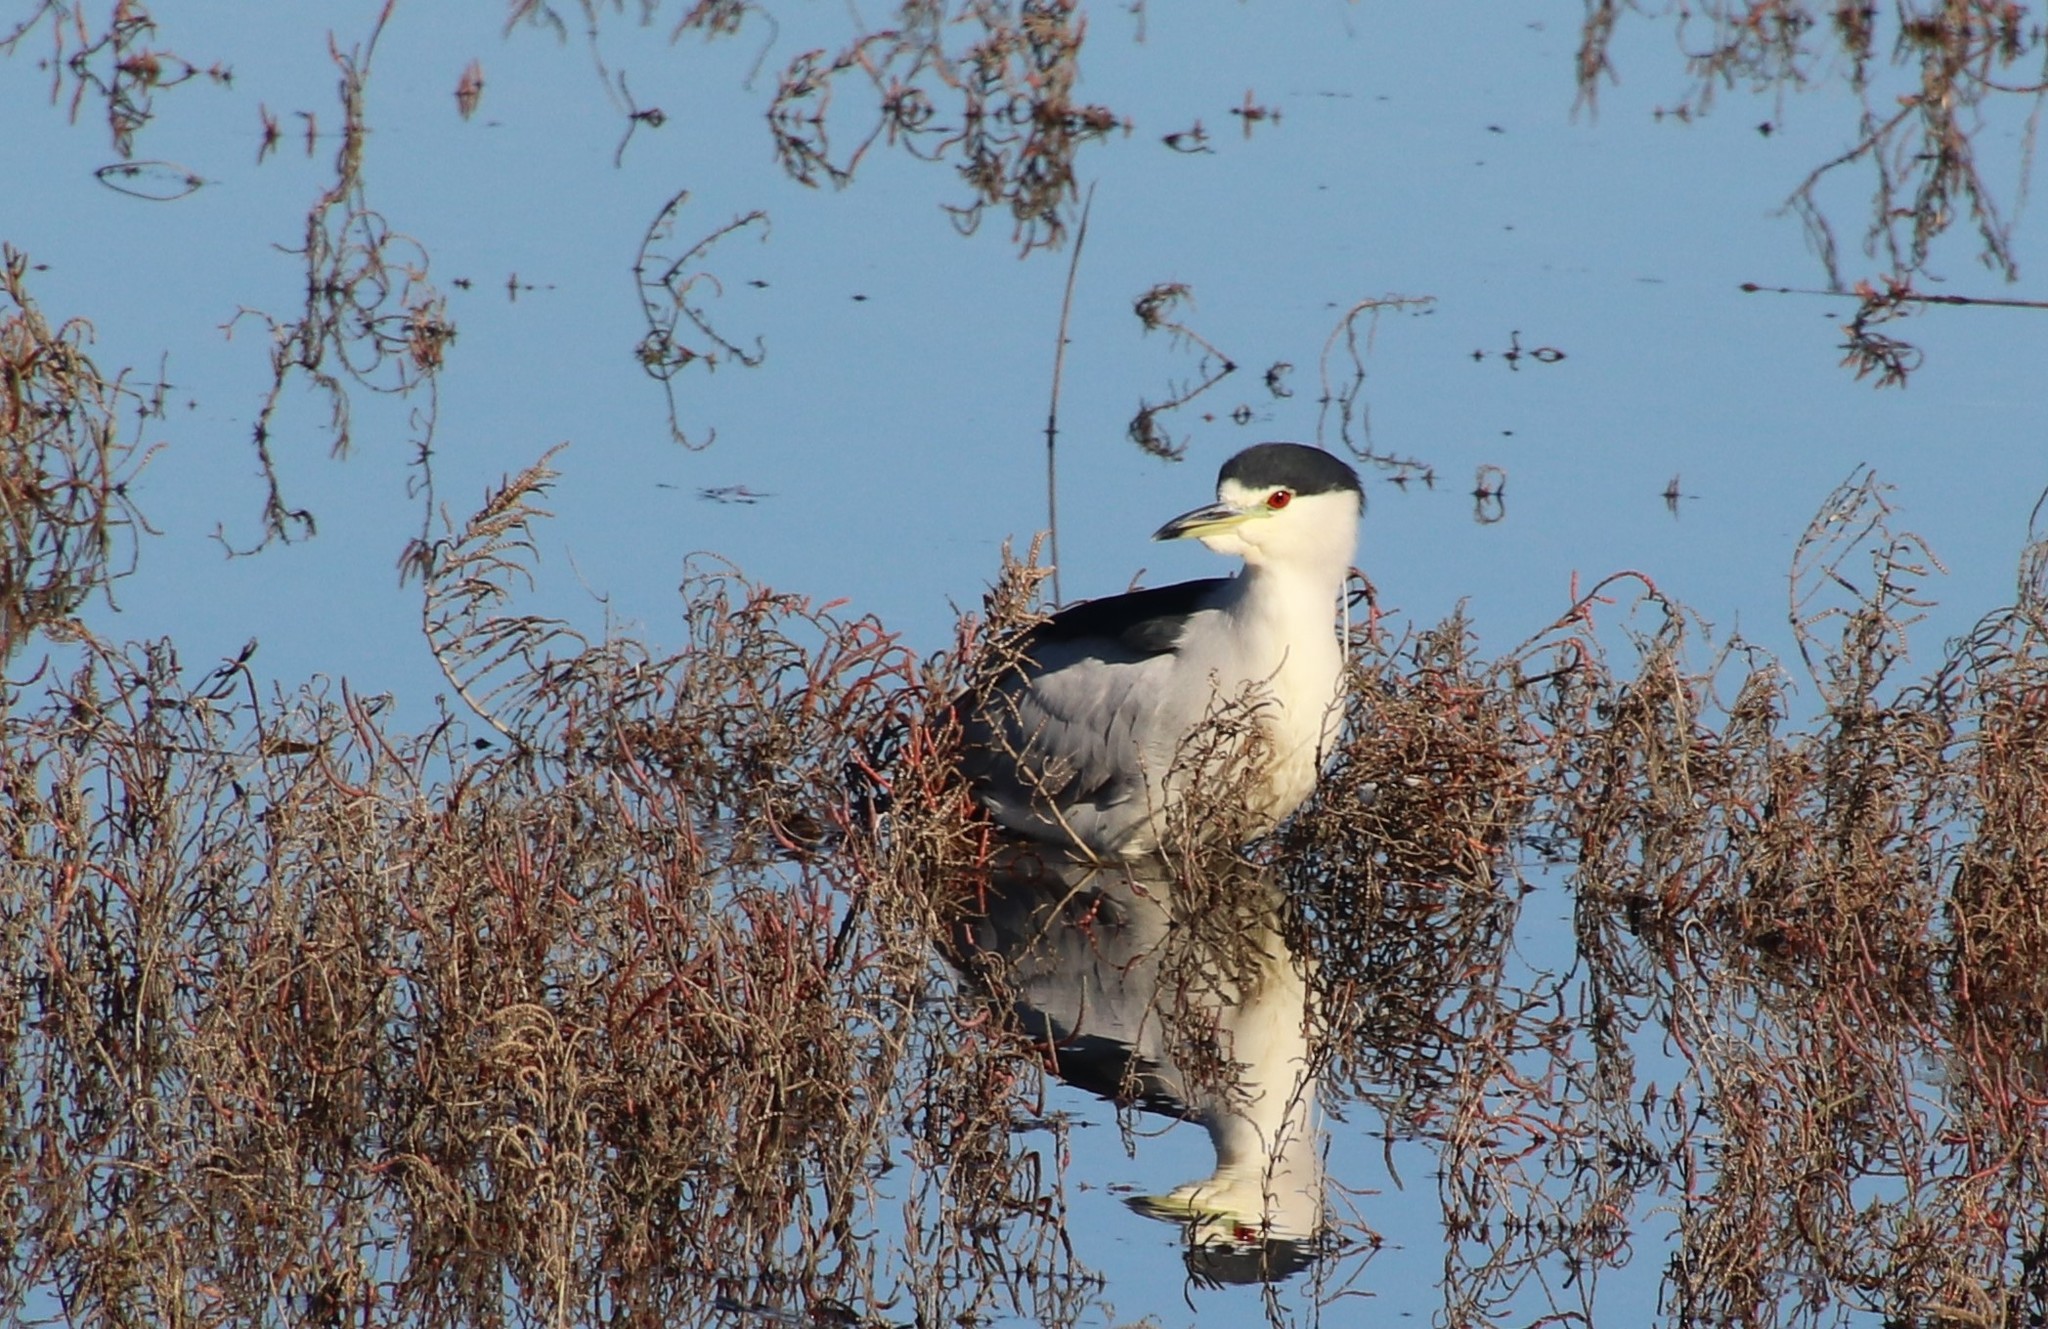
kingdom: Animalia
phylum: Chordata
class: Aves
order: Pelecaniformes
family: Ardeidae
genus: Nycticorax
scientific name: Nycticorax nycticorax
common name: Black-crowned night heron
